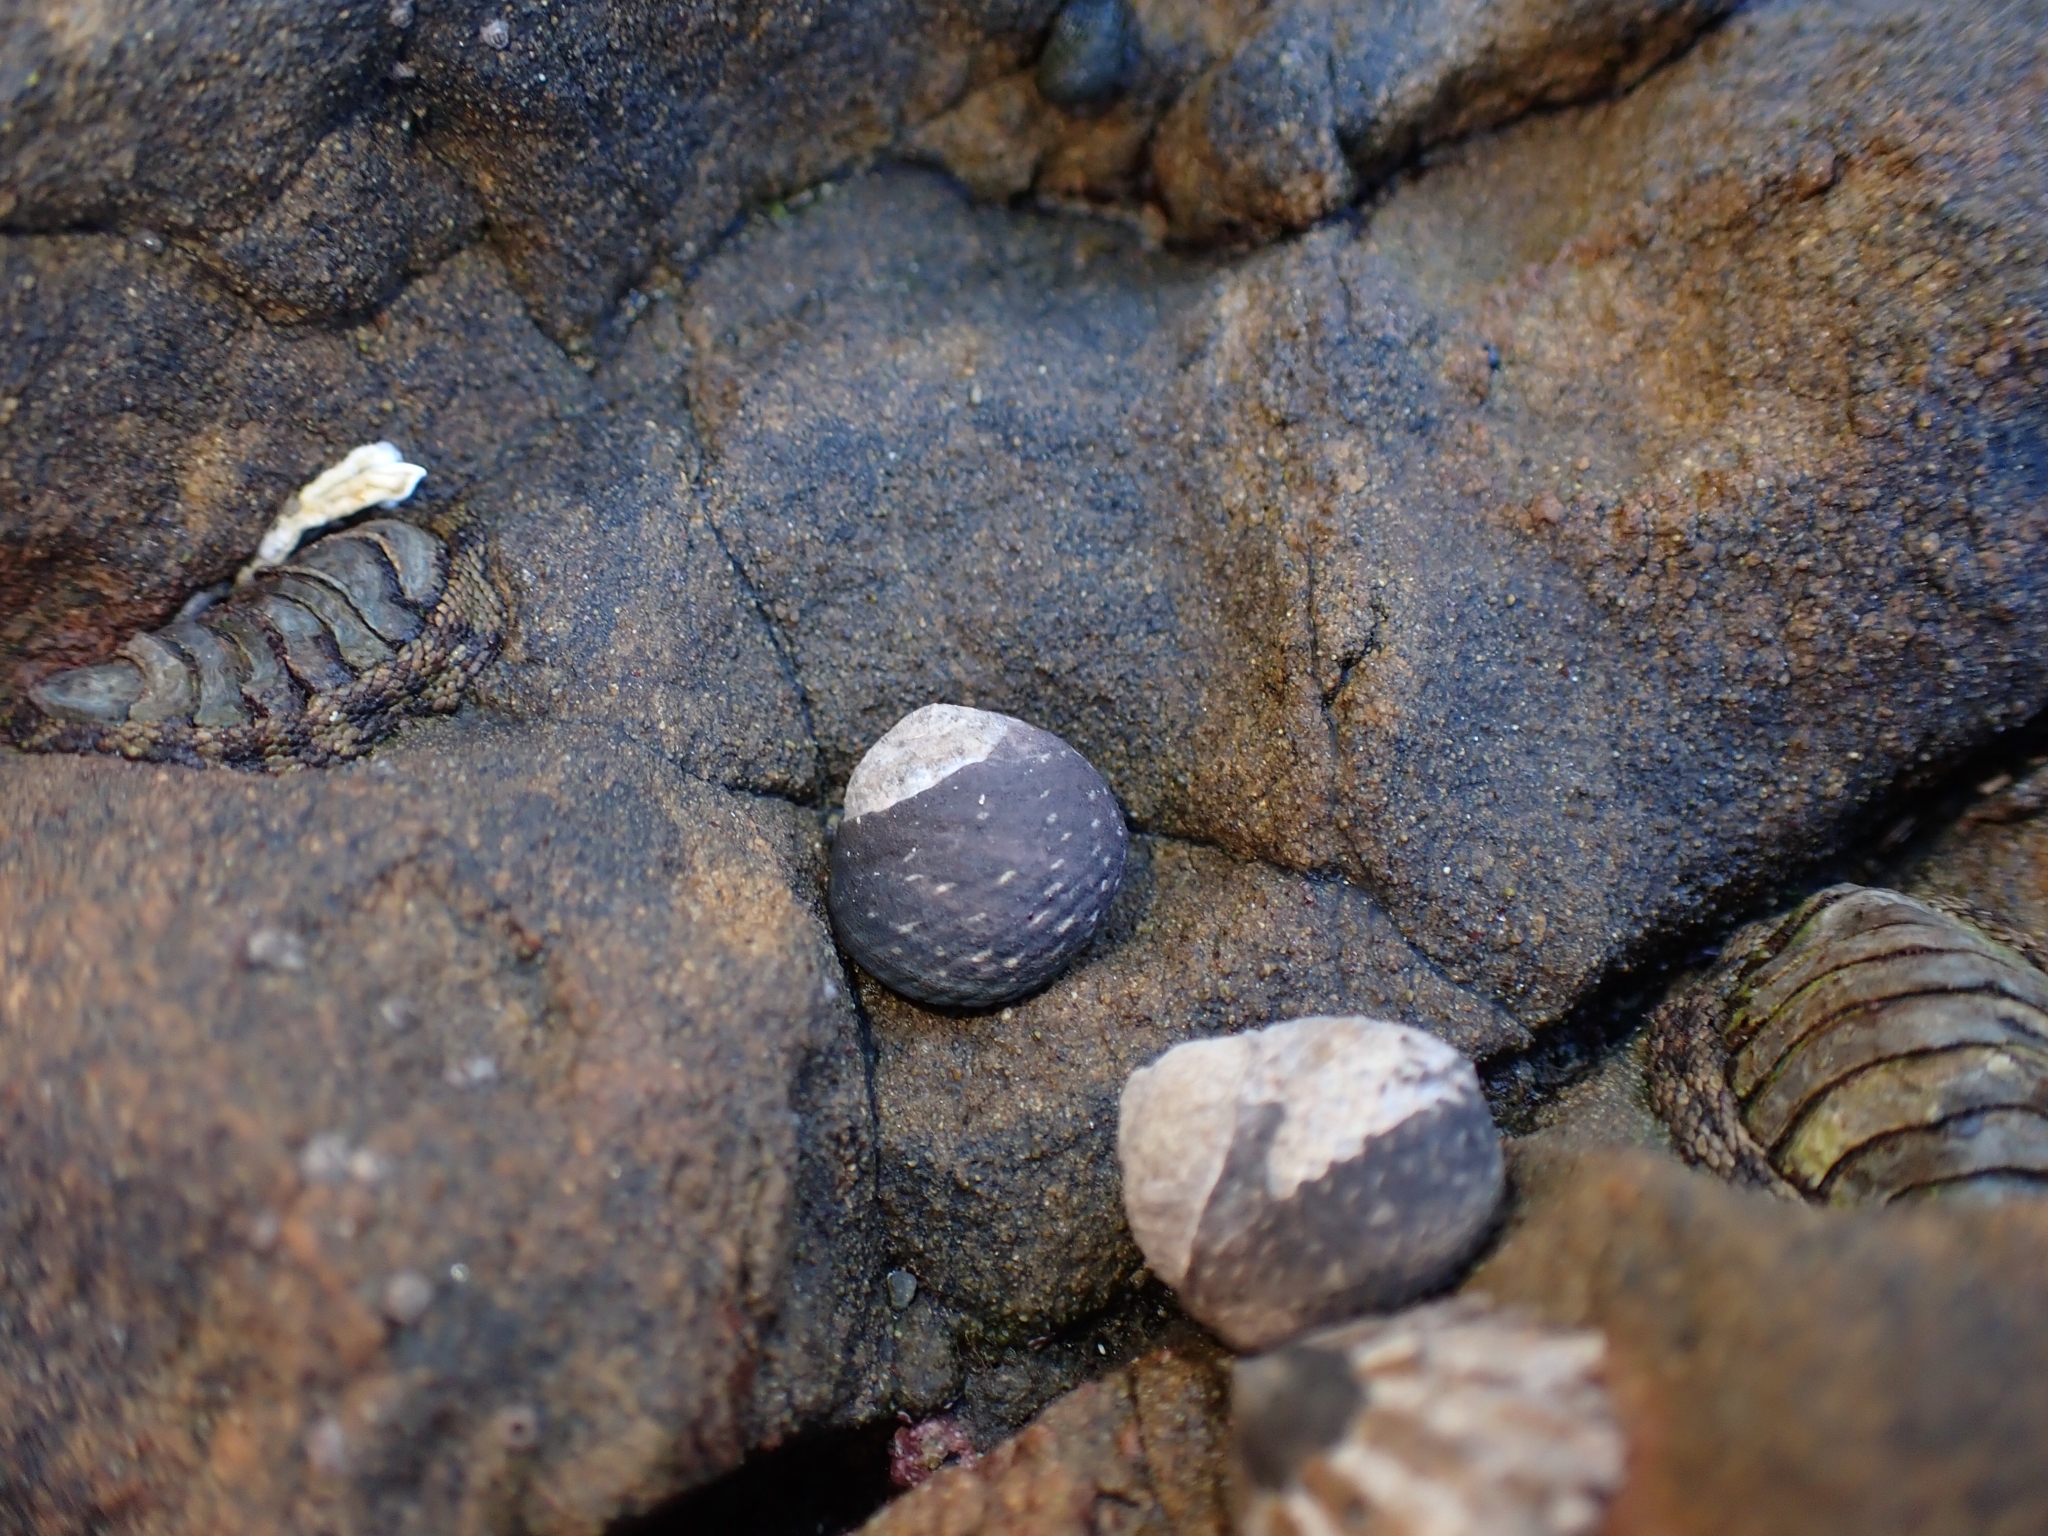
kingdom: Animalia
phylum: Mollusca
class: Gastropoda
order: Trochida
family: Trochidae
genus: Diloma
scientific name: Diloma zelandicum
